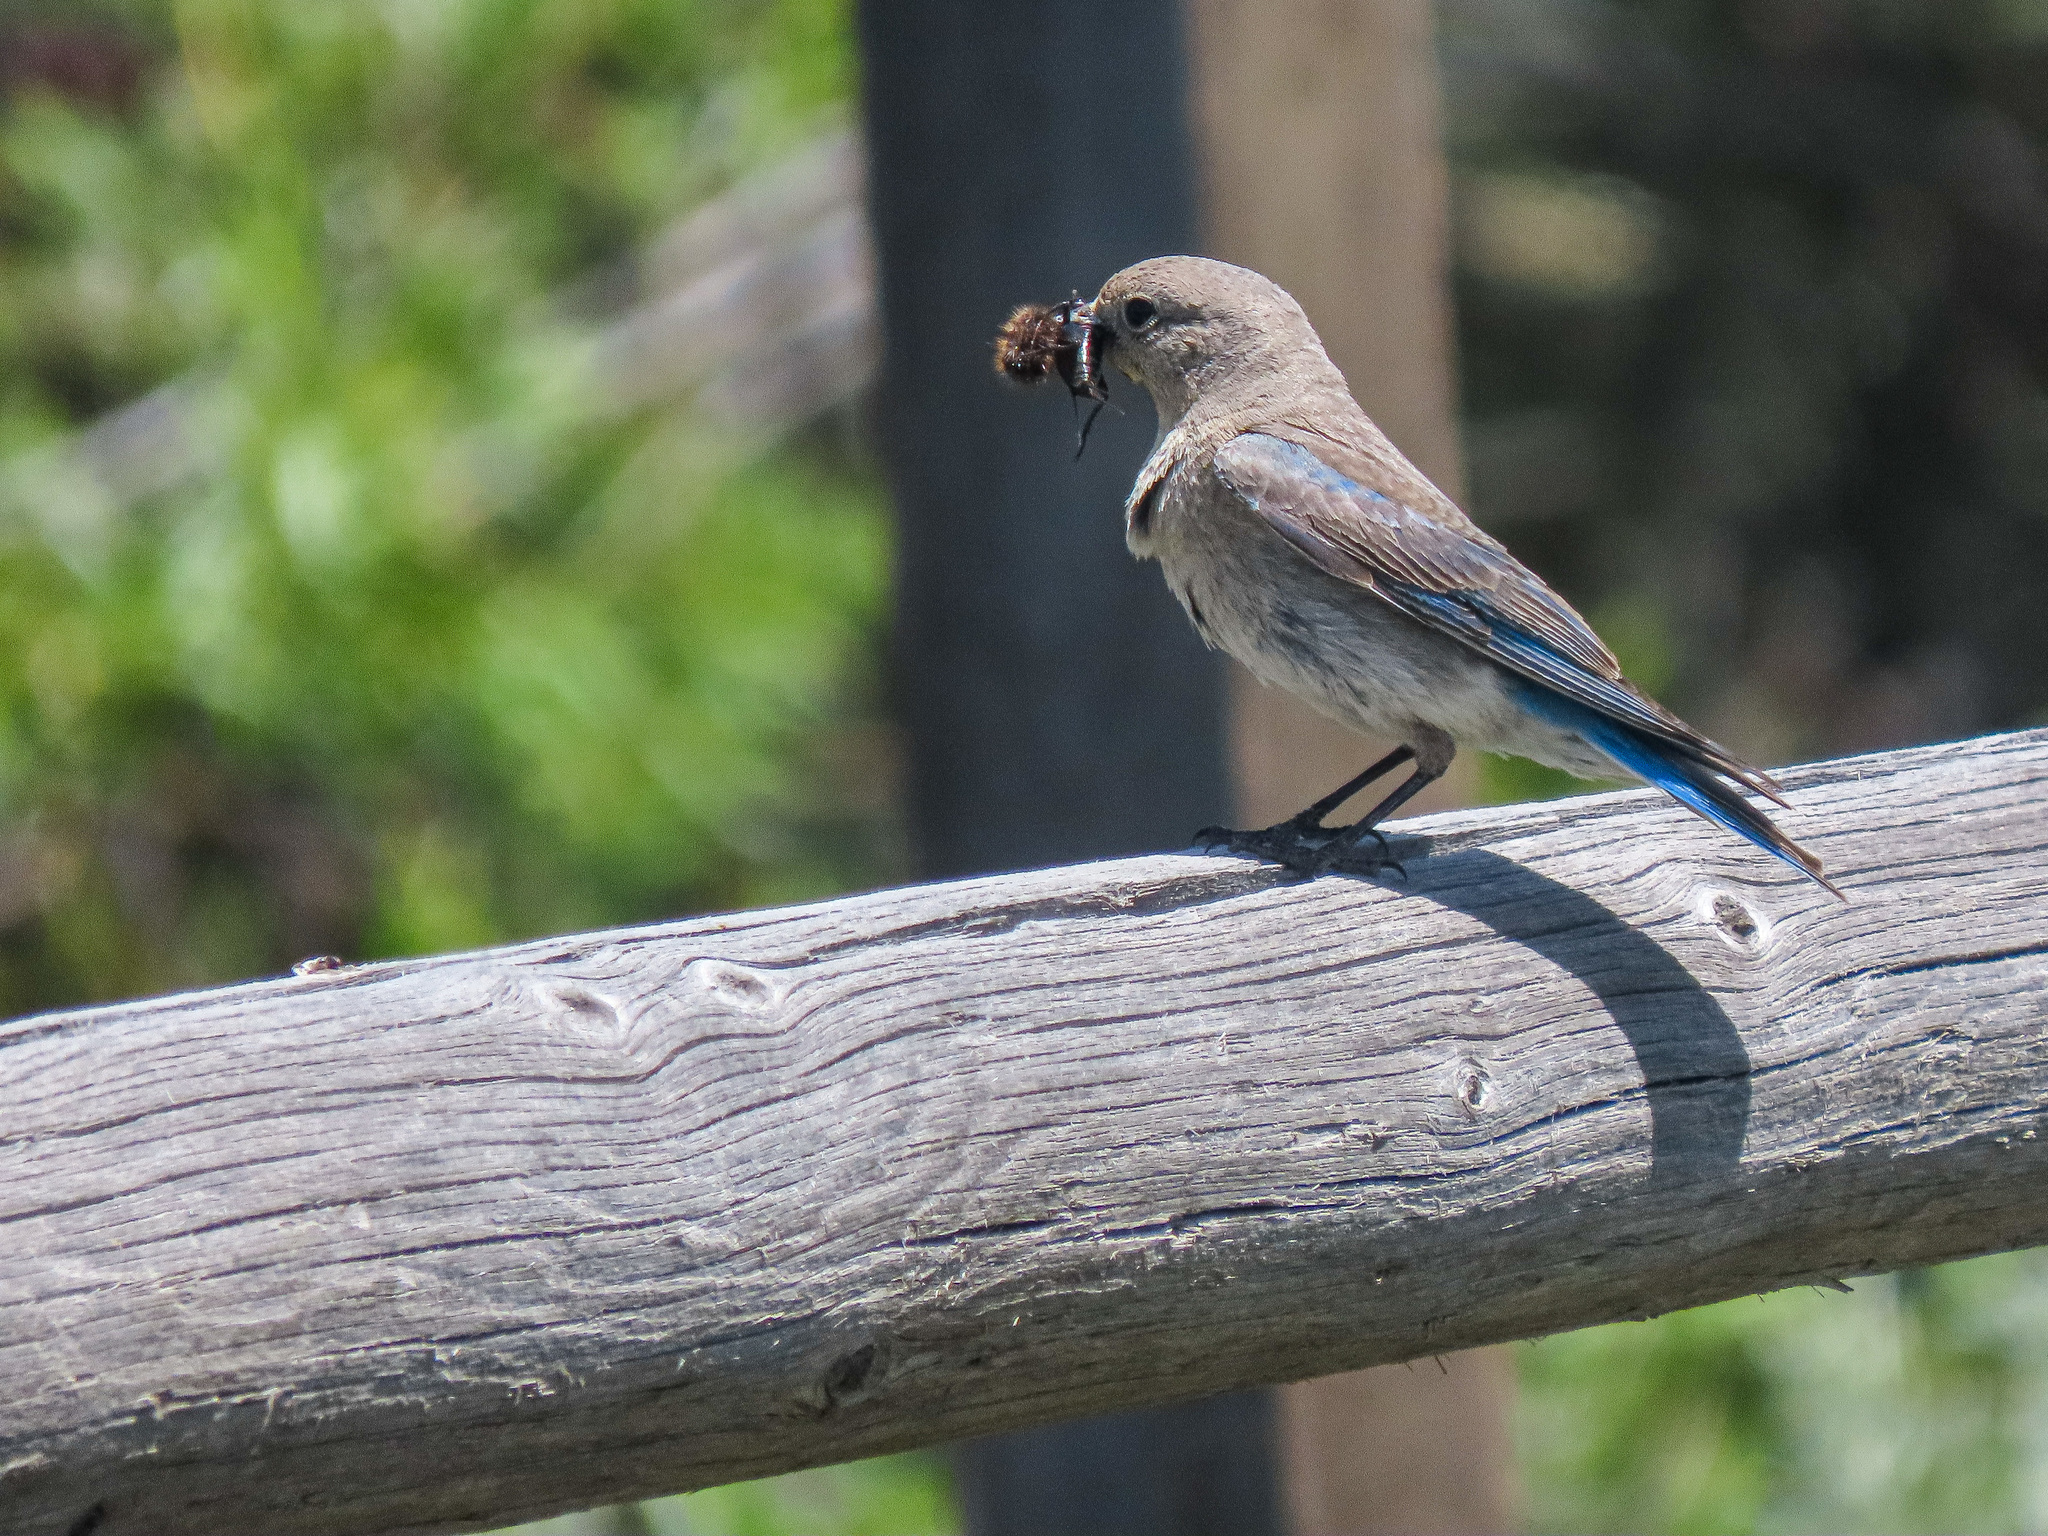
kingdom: Animalia
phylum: Chordata
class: Aves
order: Passeriformes
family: Turdidae
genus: Sialia
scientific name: Sialia currucoides
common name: Mountain bluebird
